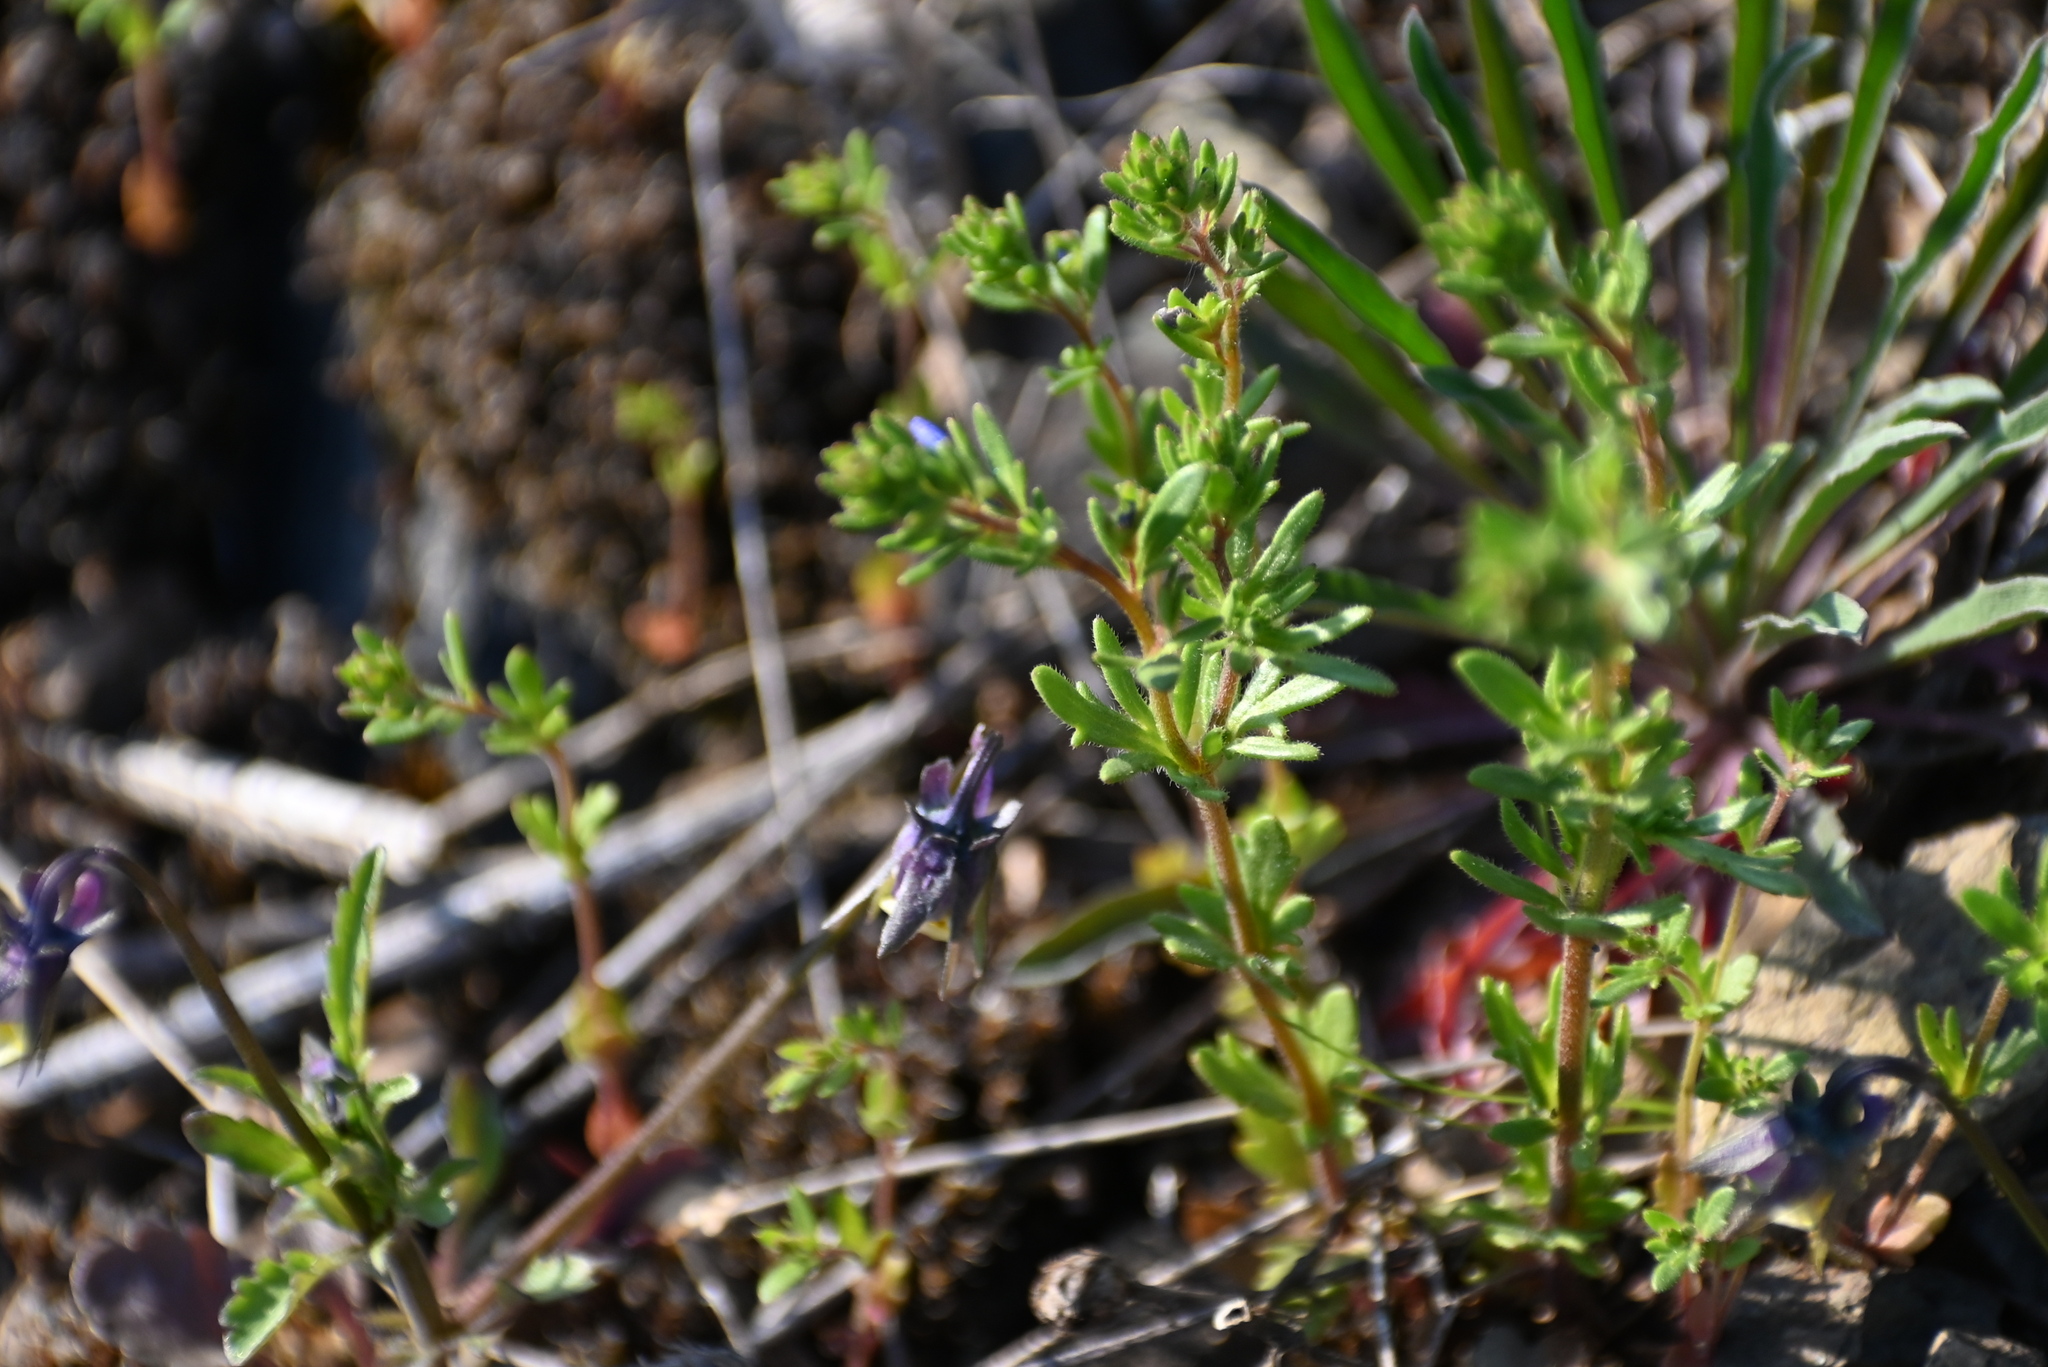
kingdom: Plantae
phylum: Tracheophyta
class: Magnoliopsida
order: Lamiales
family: Plantaginaceae
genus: Veronica
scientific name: Veronica verna
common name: Spring speedwell
